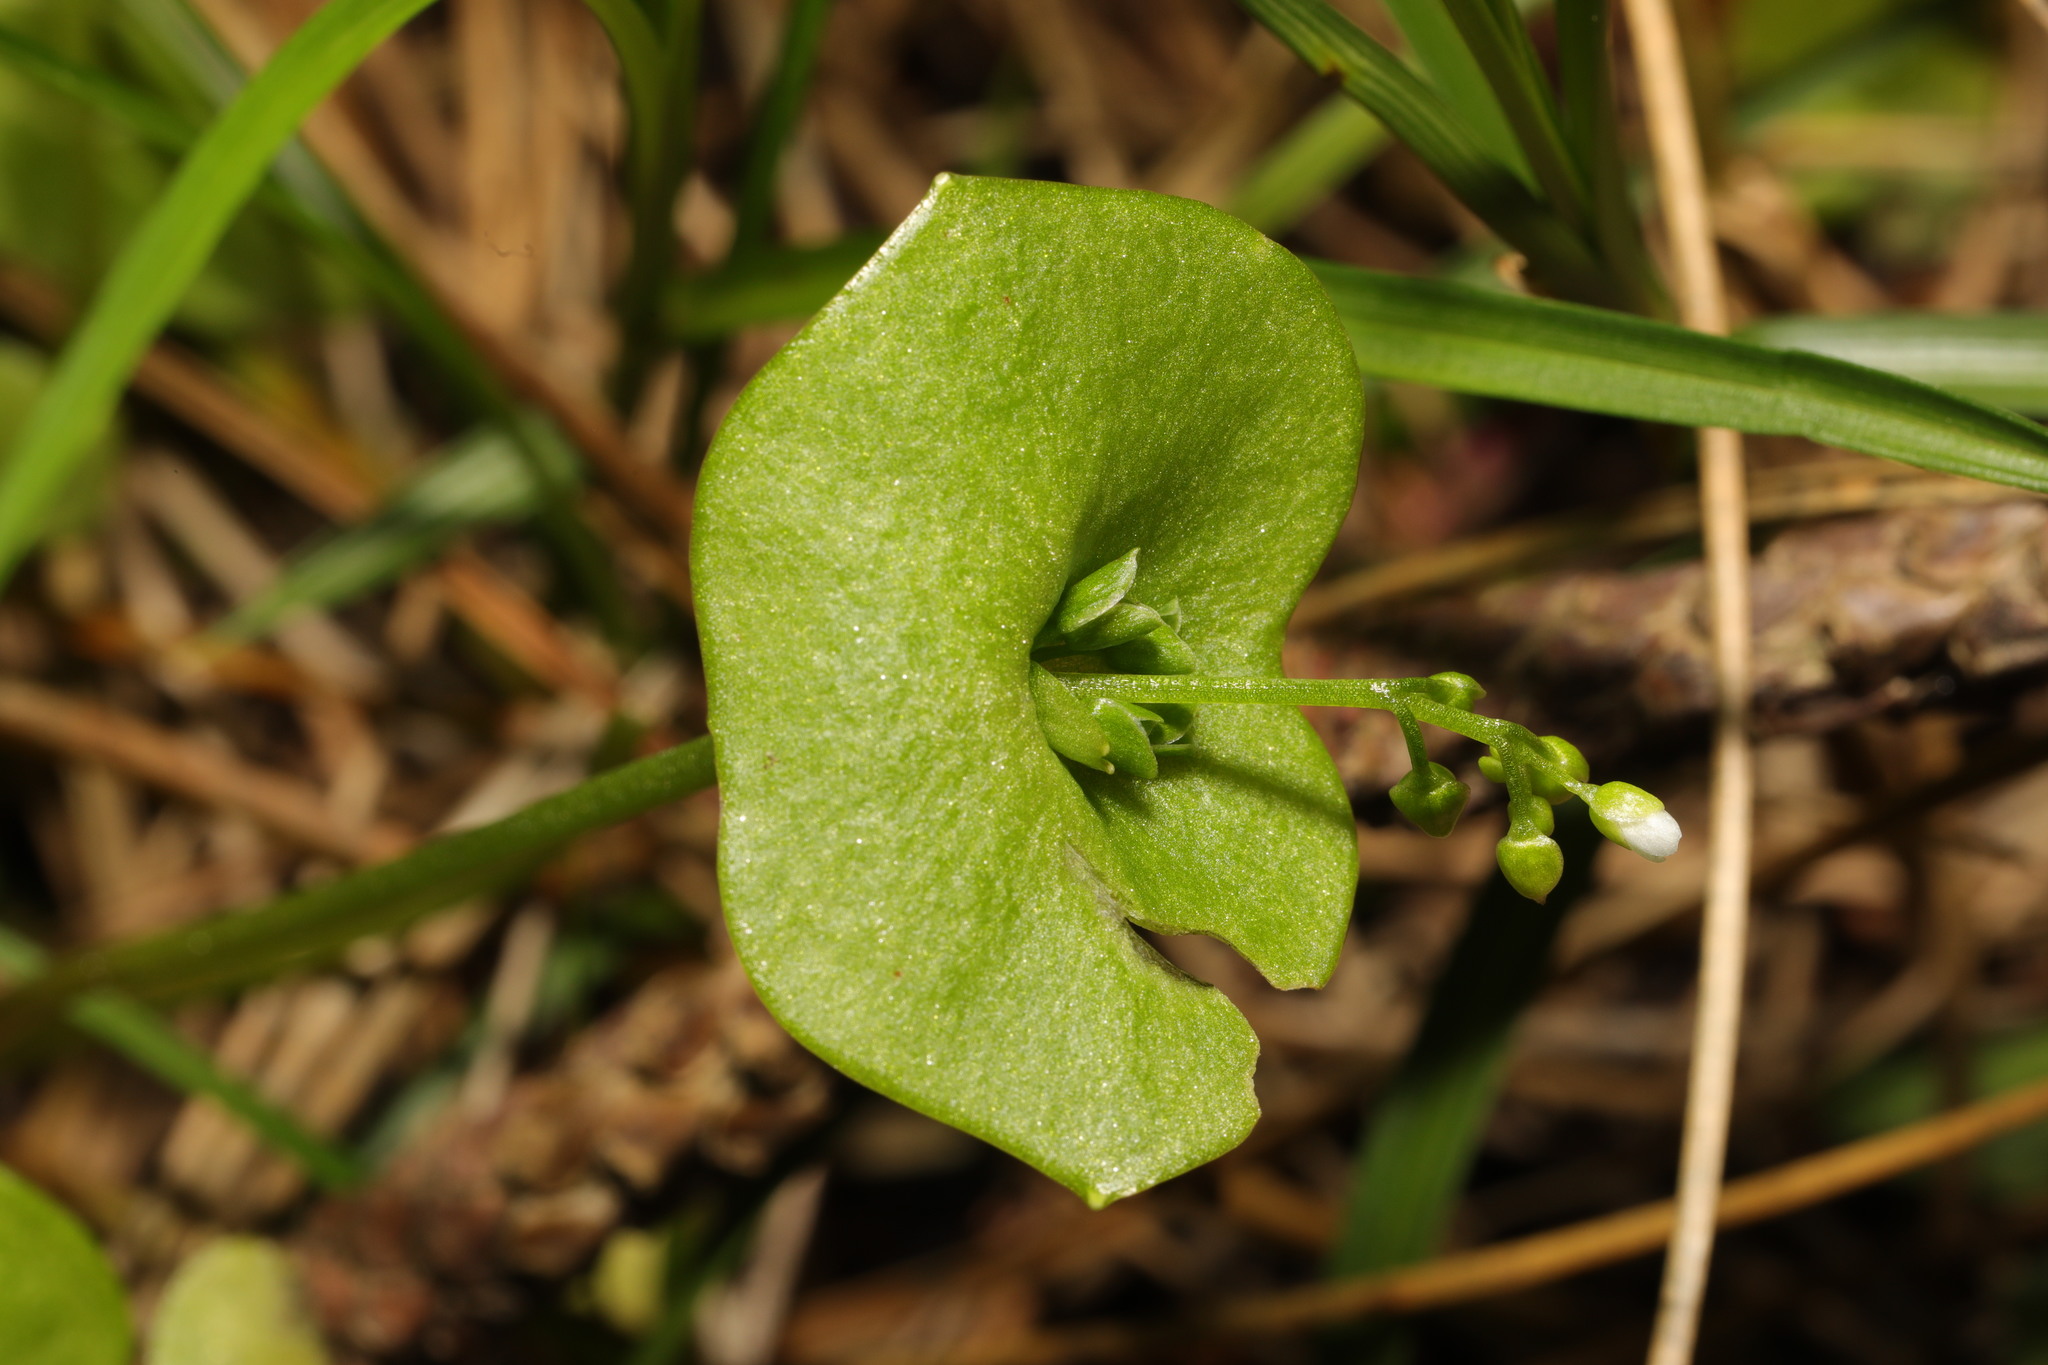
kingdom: Plantae
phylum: Tracheophyta
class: Magnoliopsida
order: Caryophyllales
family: Montiaceae
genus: Claytonia
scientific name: Claytonia perfoliata
